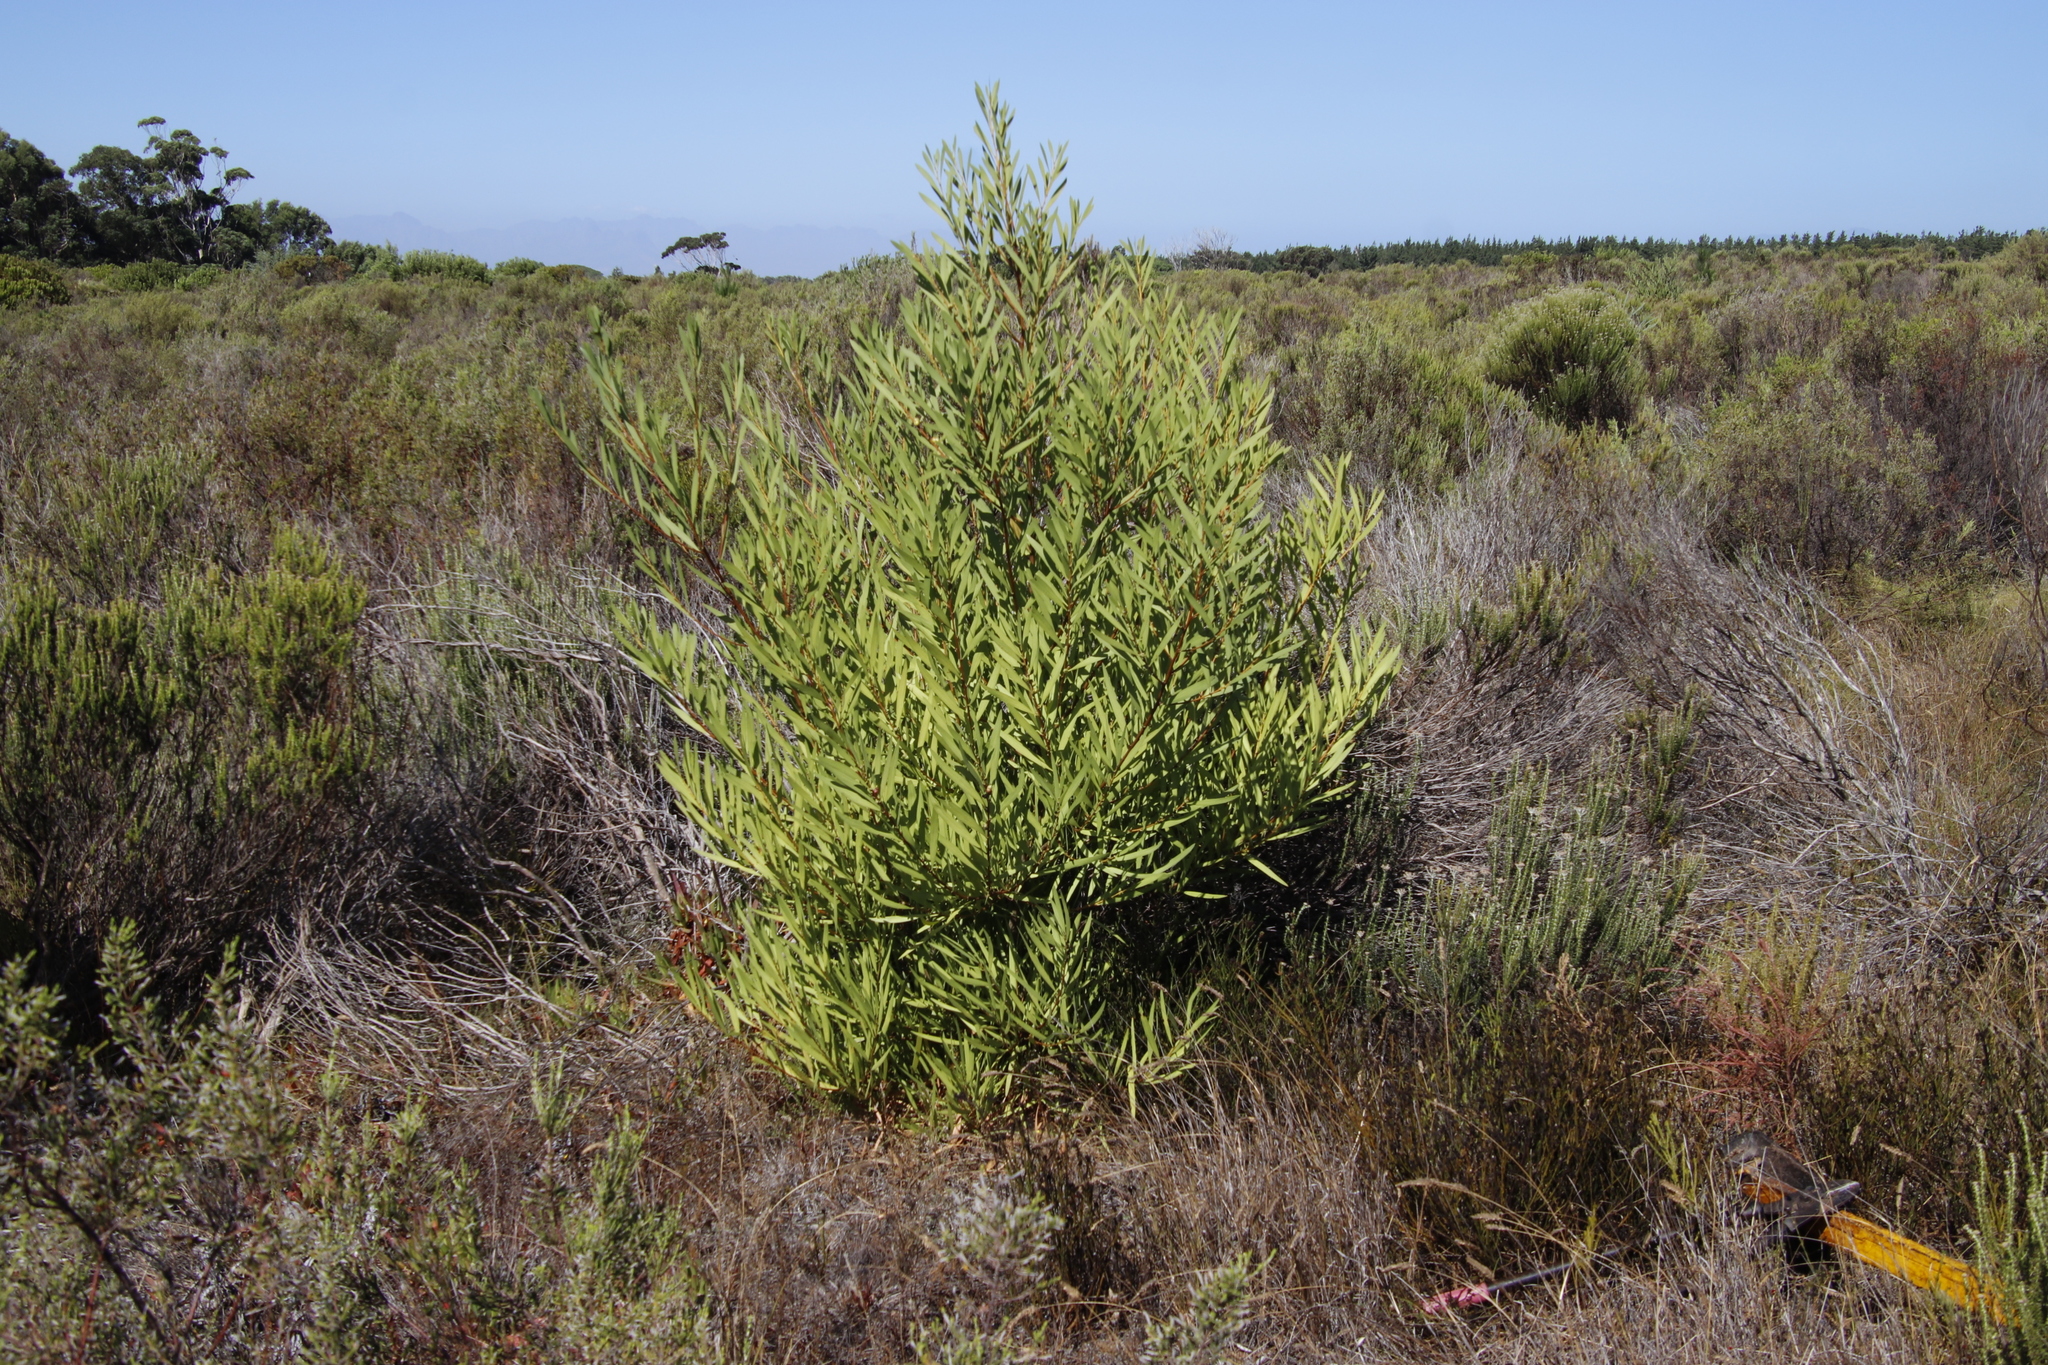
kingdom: Plantae
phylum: Tracheophyta
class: Magnoliopsida
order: Fabales
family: Fabaceae
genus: Acacia
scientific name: Acacia longifolia
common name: Sydney golden wattle
